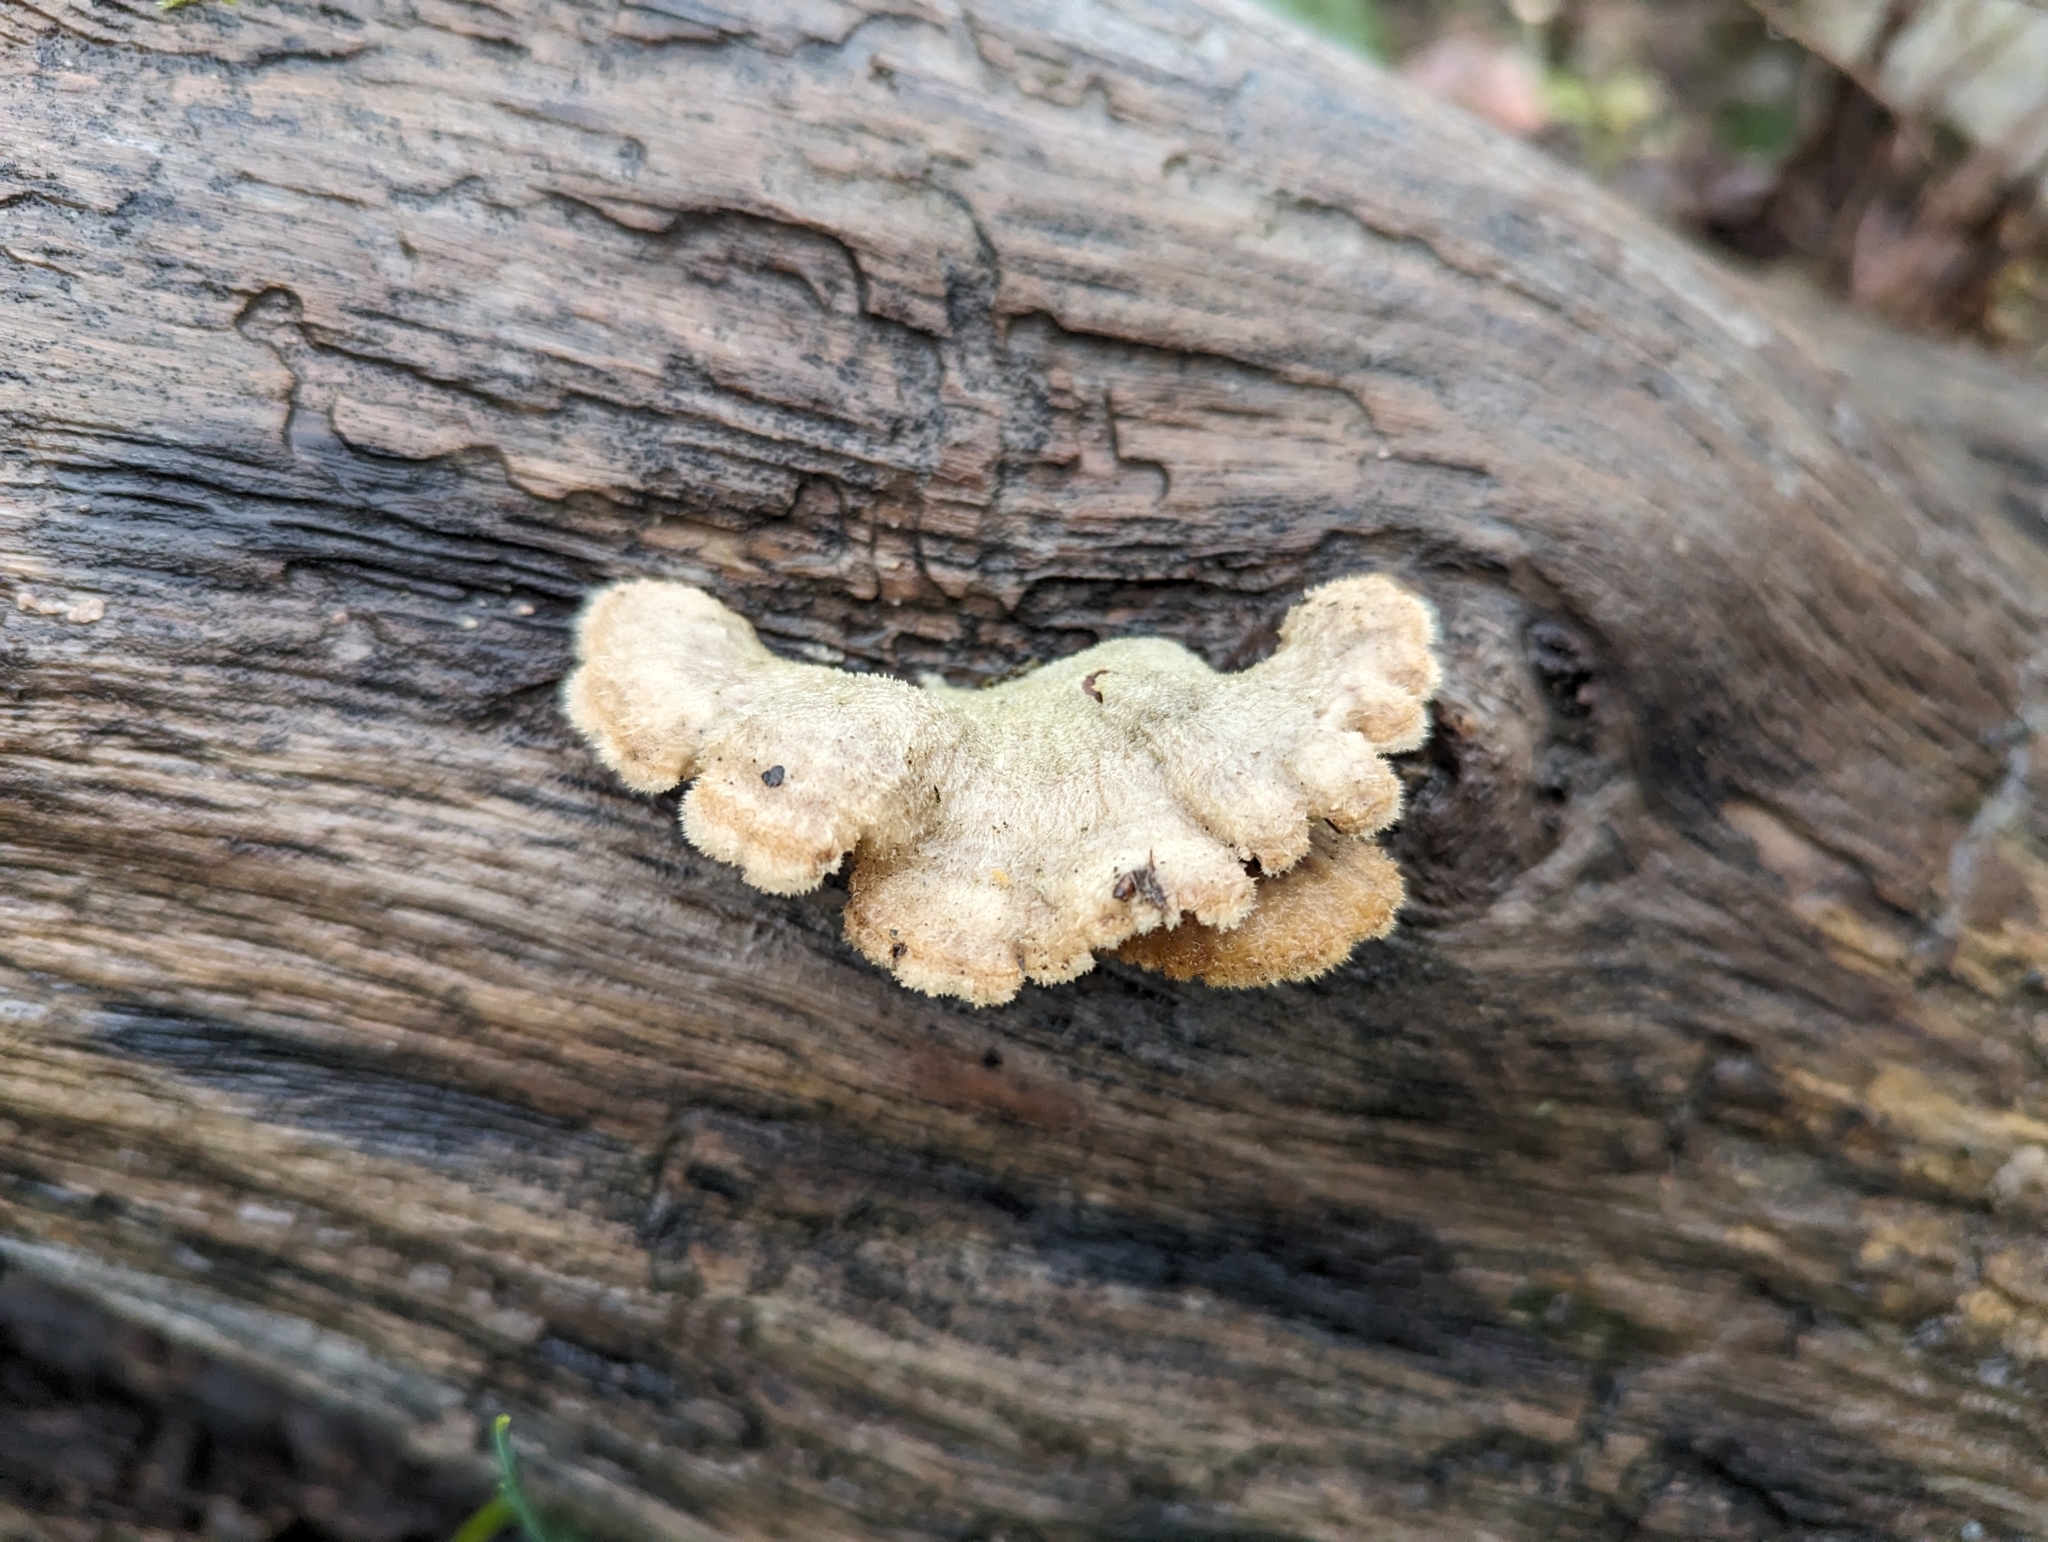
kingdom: Fungi
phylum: Basidiomycota
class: Agaricomycetes
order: Agaricales
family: Schizophyllaceae
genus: Schizophyllum
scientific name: Schizophyllum commune
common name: Common porecrust
